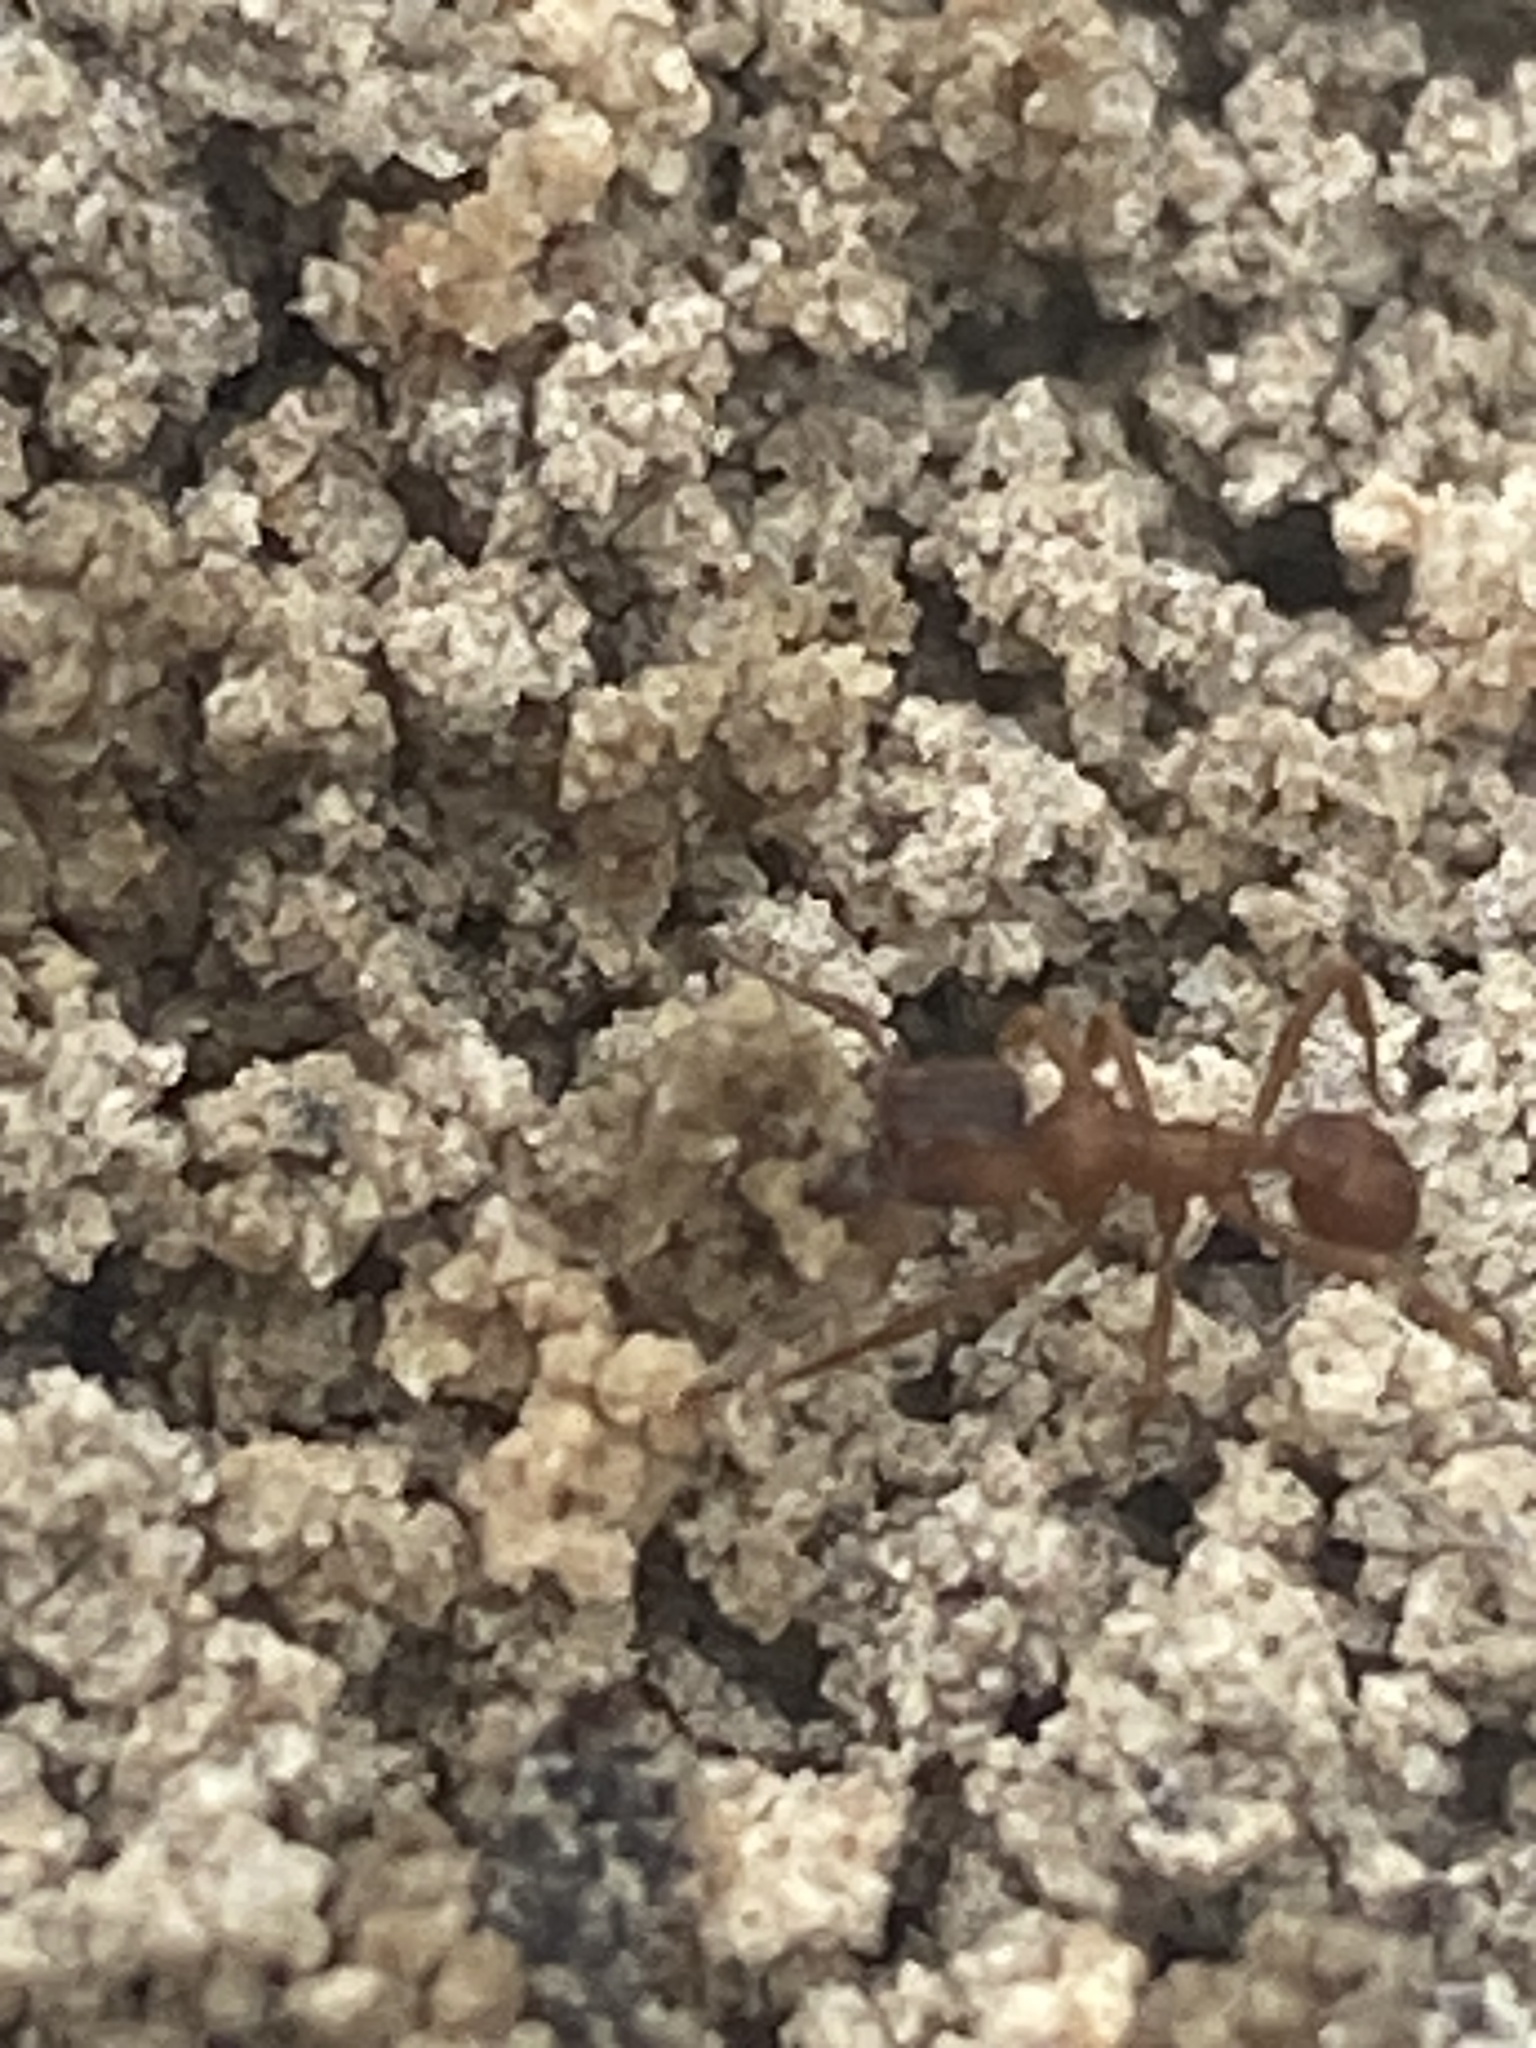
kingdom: Animalia
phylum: Arthropoda
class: Insecta
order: Hymenoptera
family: Formicidae
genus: Trachymyrmex
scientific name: Trachymyrmex septentrionalis
